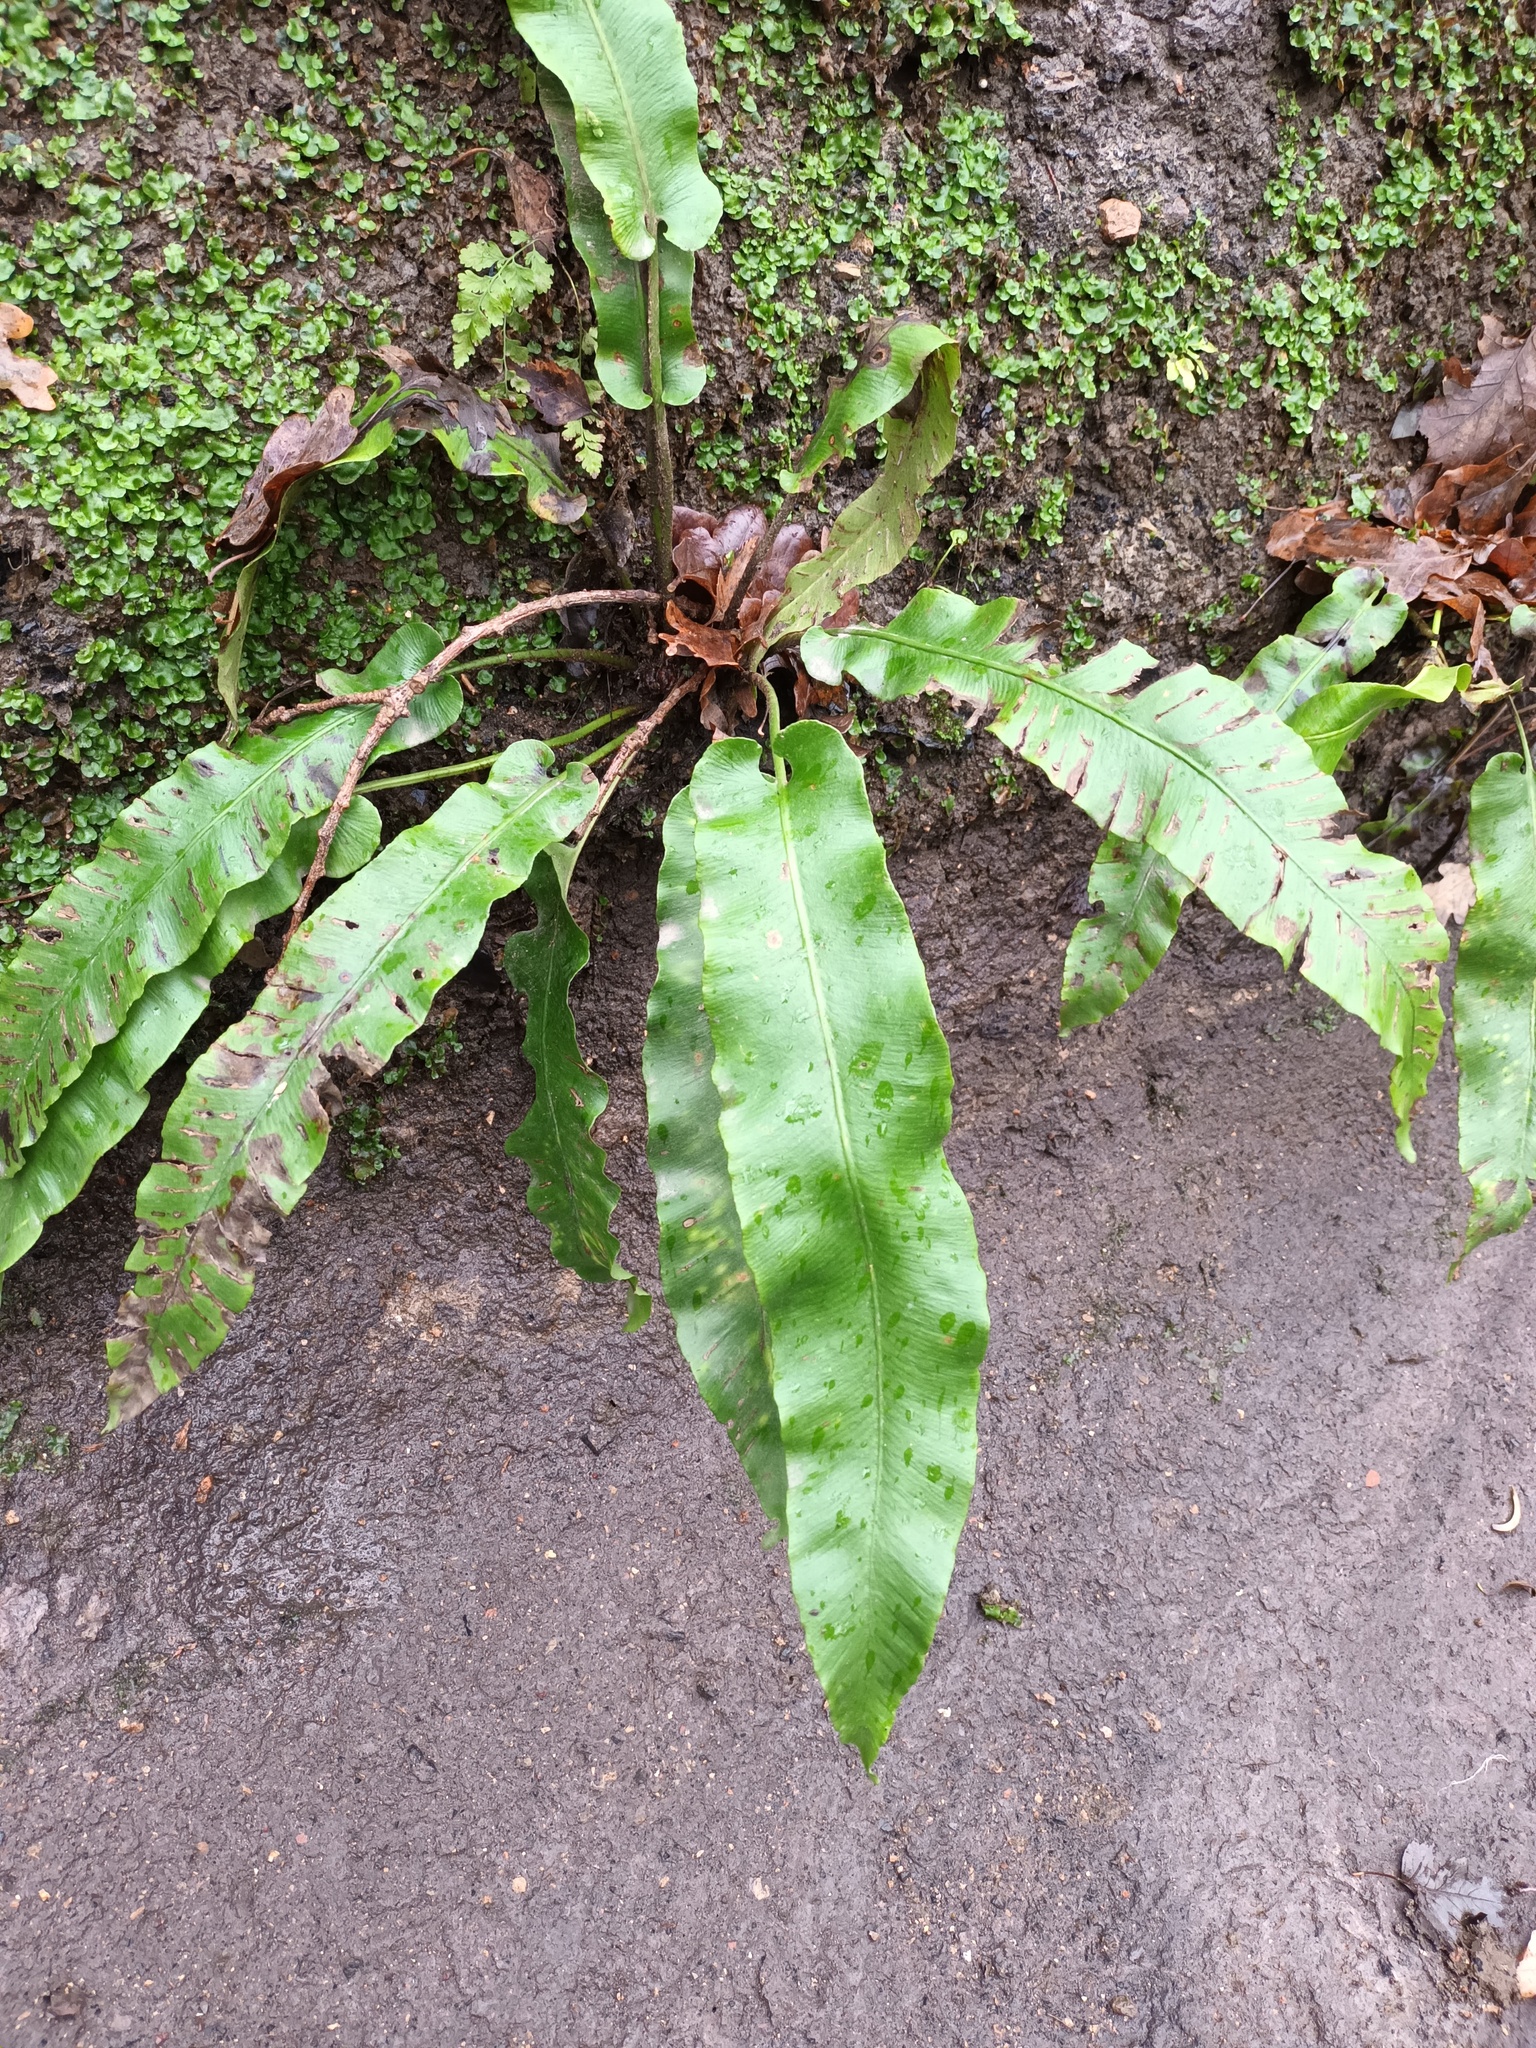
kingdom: Plantae
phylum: Tracheophyta
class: Polypodiopsida
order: Polypodiales
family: Aspleniaceae
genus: Asplenium
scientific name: Asplenium scolopendrium
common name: Hart's-tongue fern
